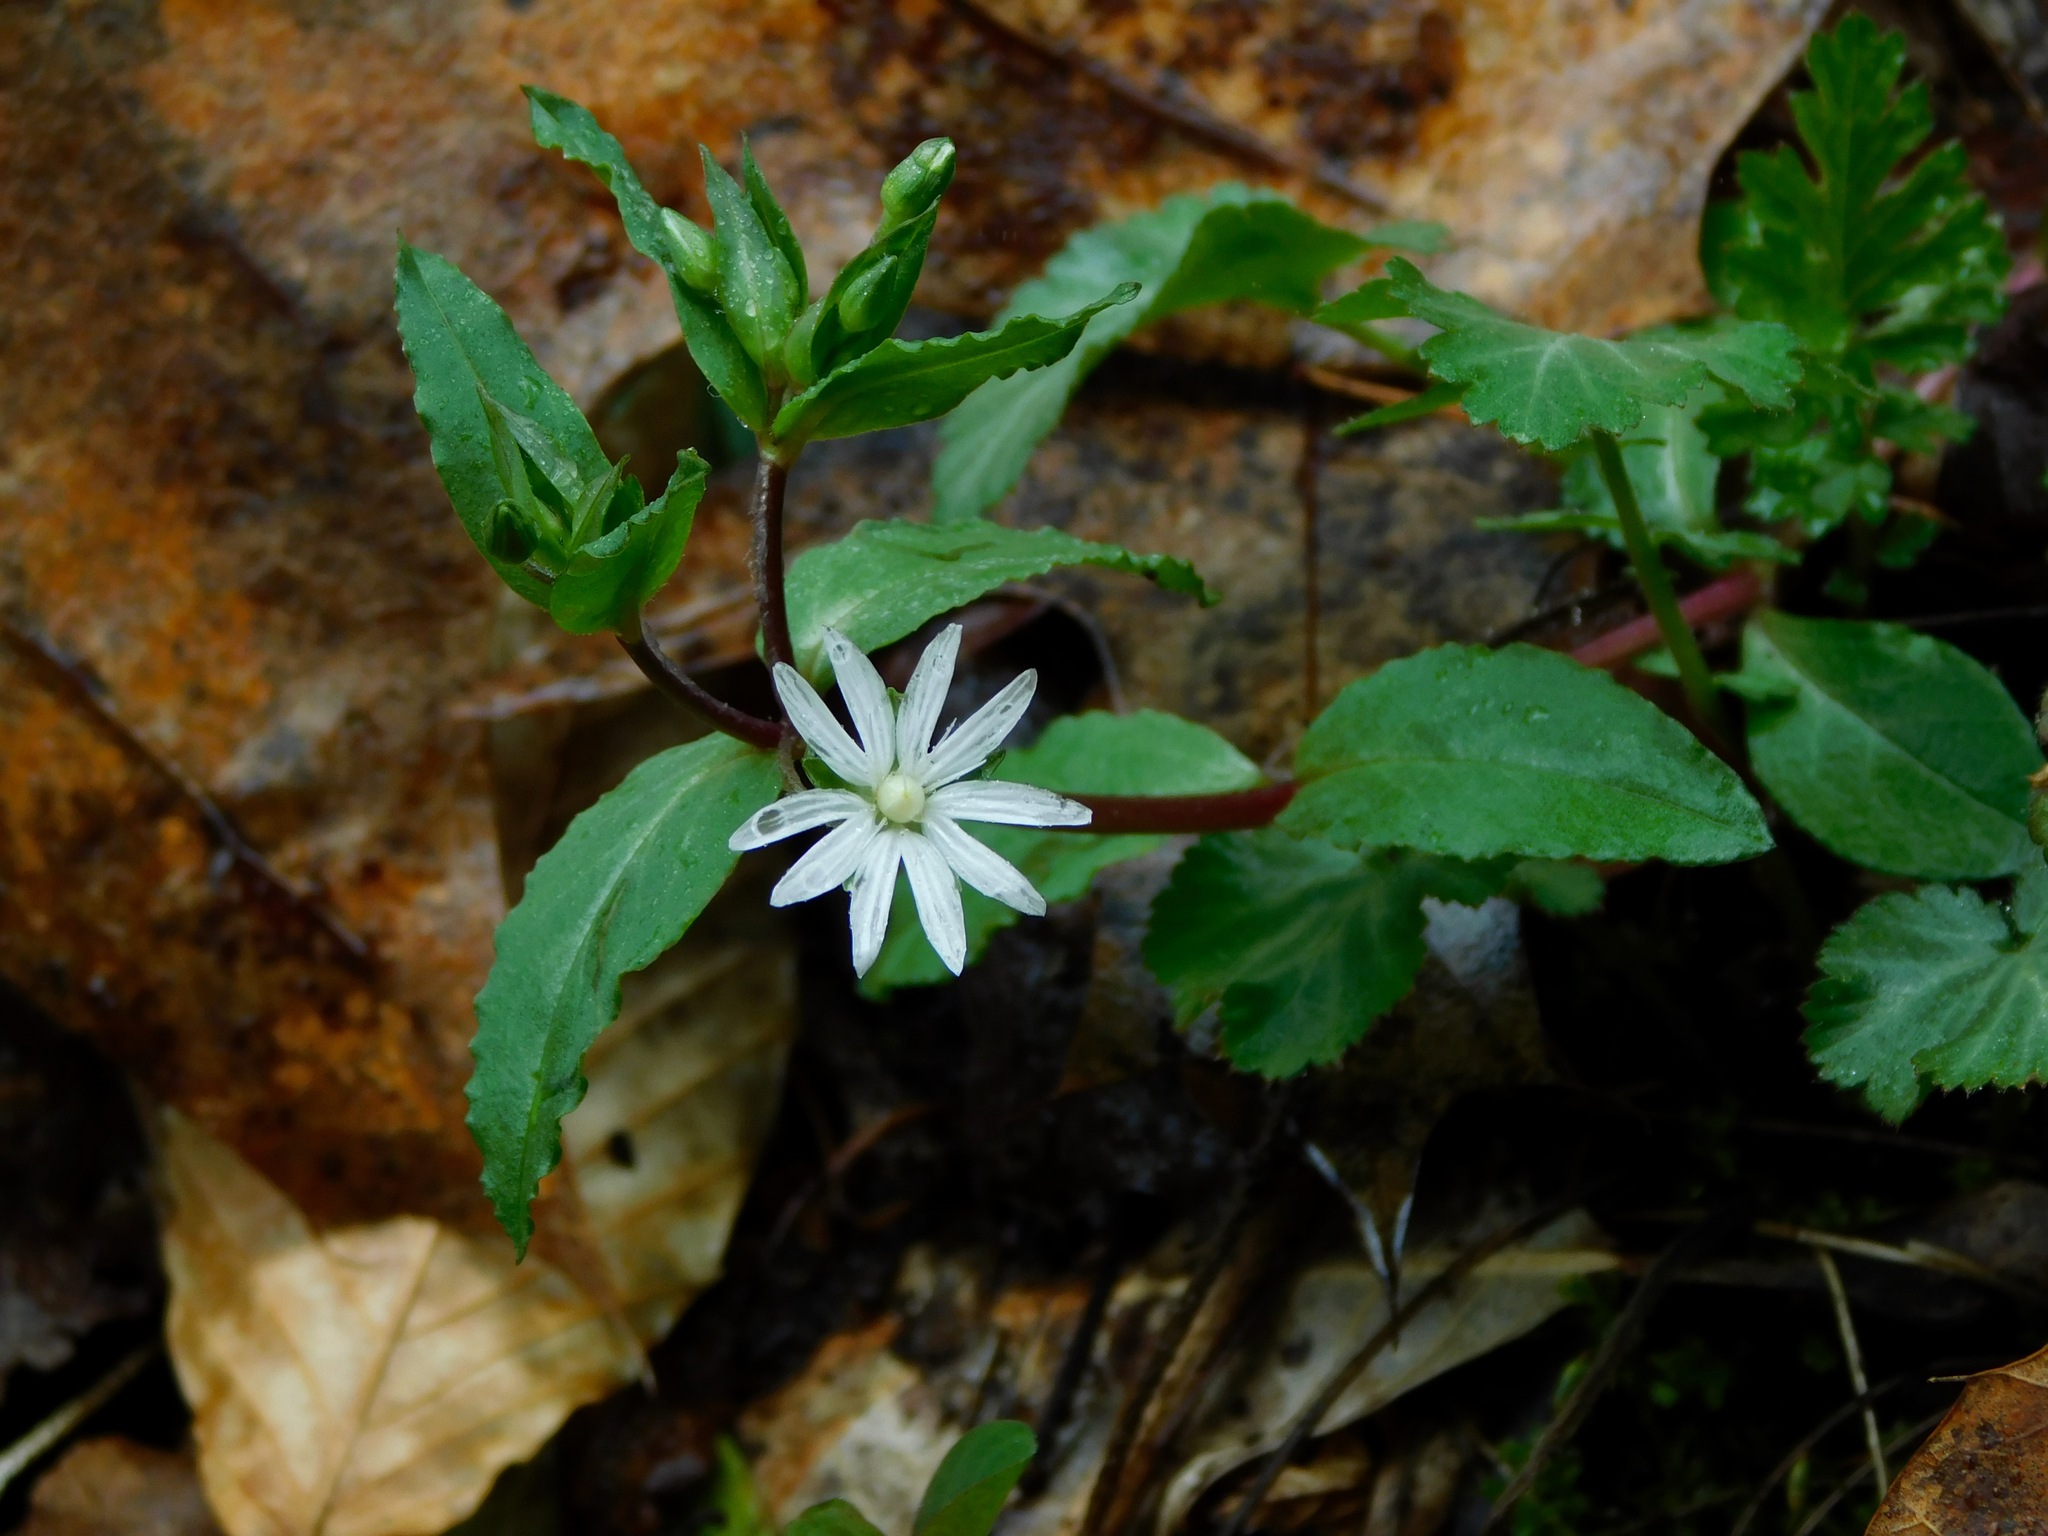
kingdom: Plantae
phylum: Tracheophyta
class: Magnoliopsida
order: Caryophyllales
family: Caryophyllaceae
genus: Stellaria
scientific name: Stellaria pubera
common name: Star chickweed
